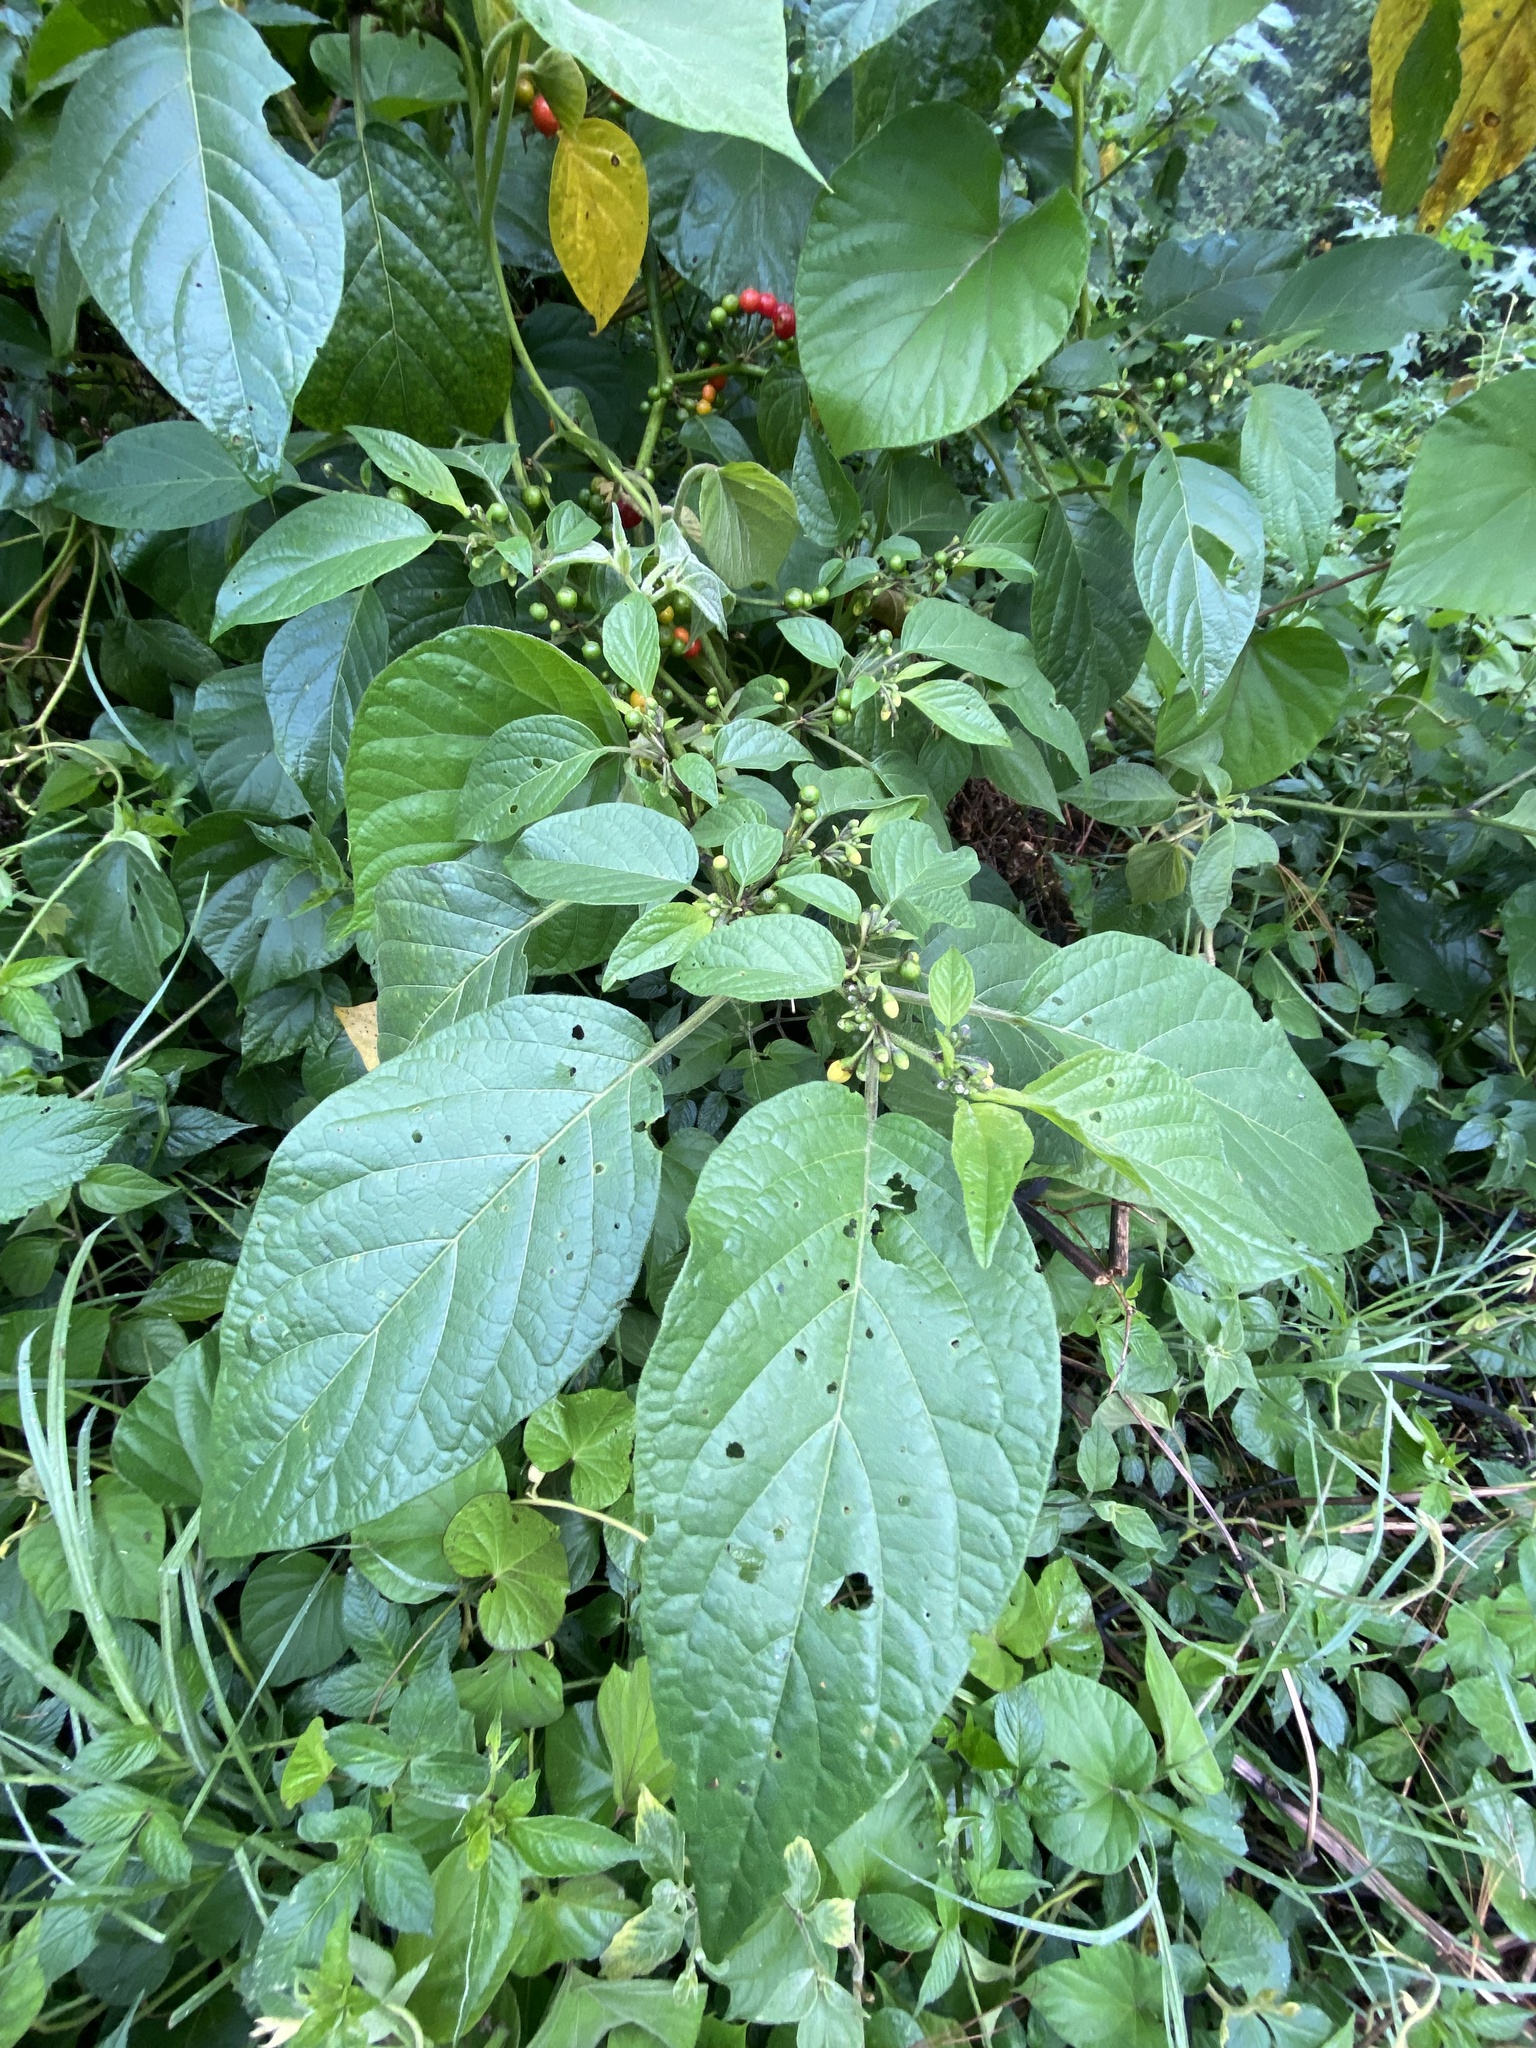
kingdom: Plantae
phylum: Tracheophyta
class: Magnoliopsida
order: Solanales
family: Solanaceae
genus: Witheringia
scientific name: Witheringia solanacea
